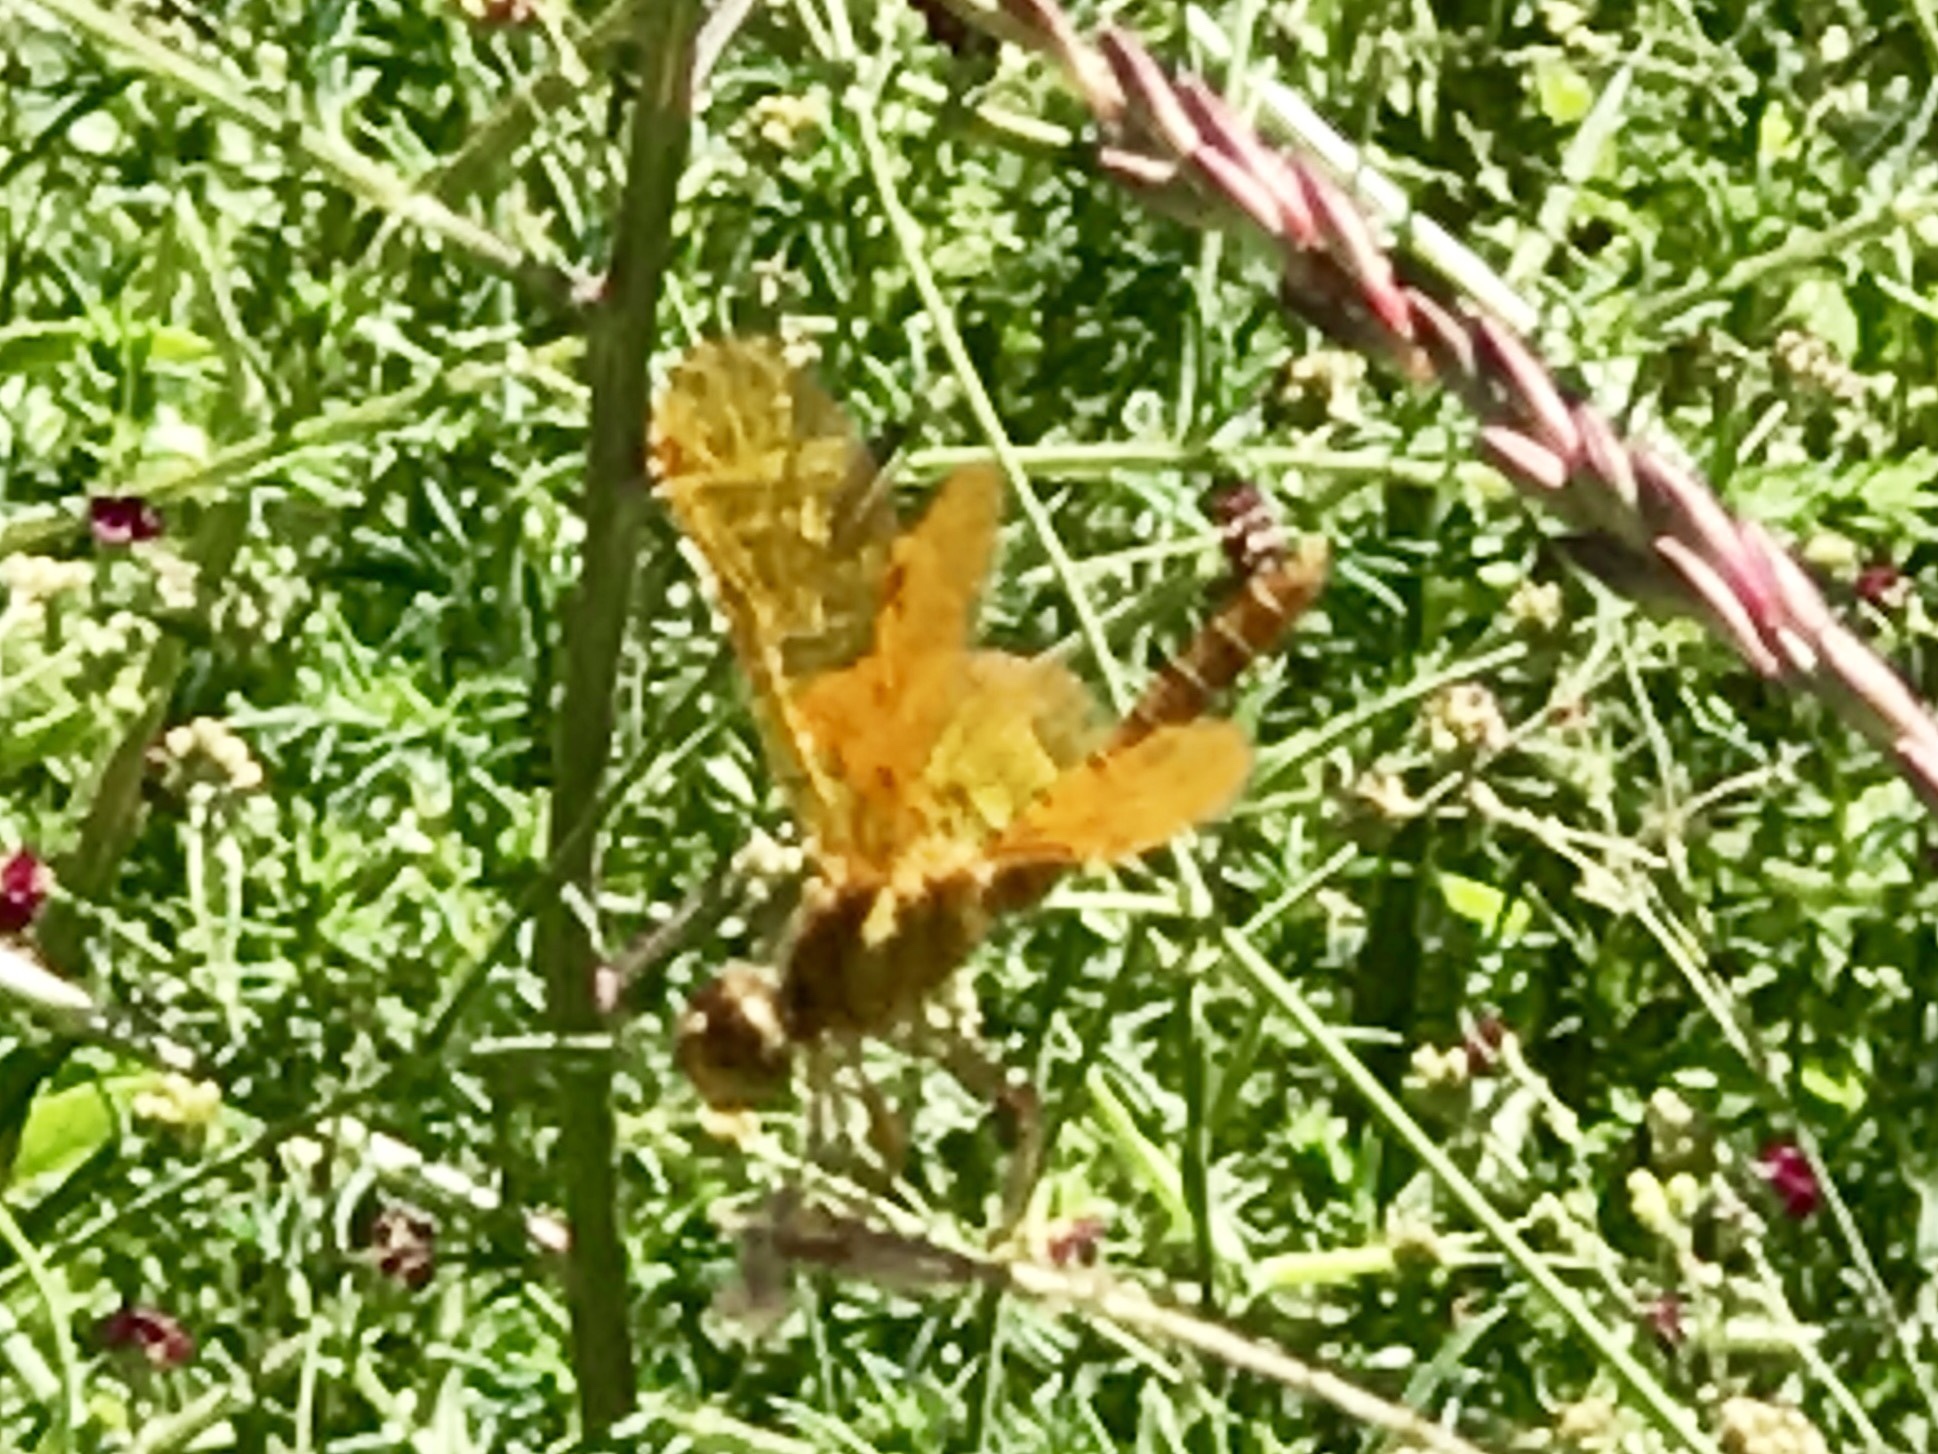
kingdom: Animalia
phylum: Arthropoda
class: Insecta
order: Odonata
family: Libellulidae
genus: Perithemis
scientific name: Perithemis intensa
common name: Mexican amberwing
